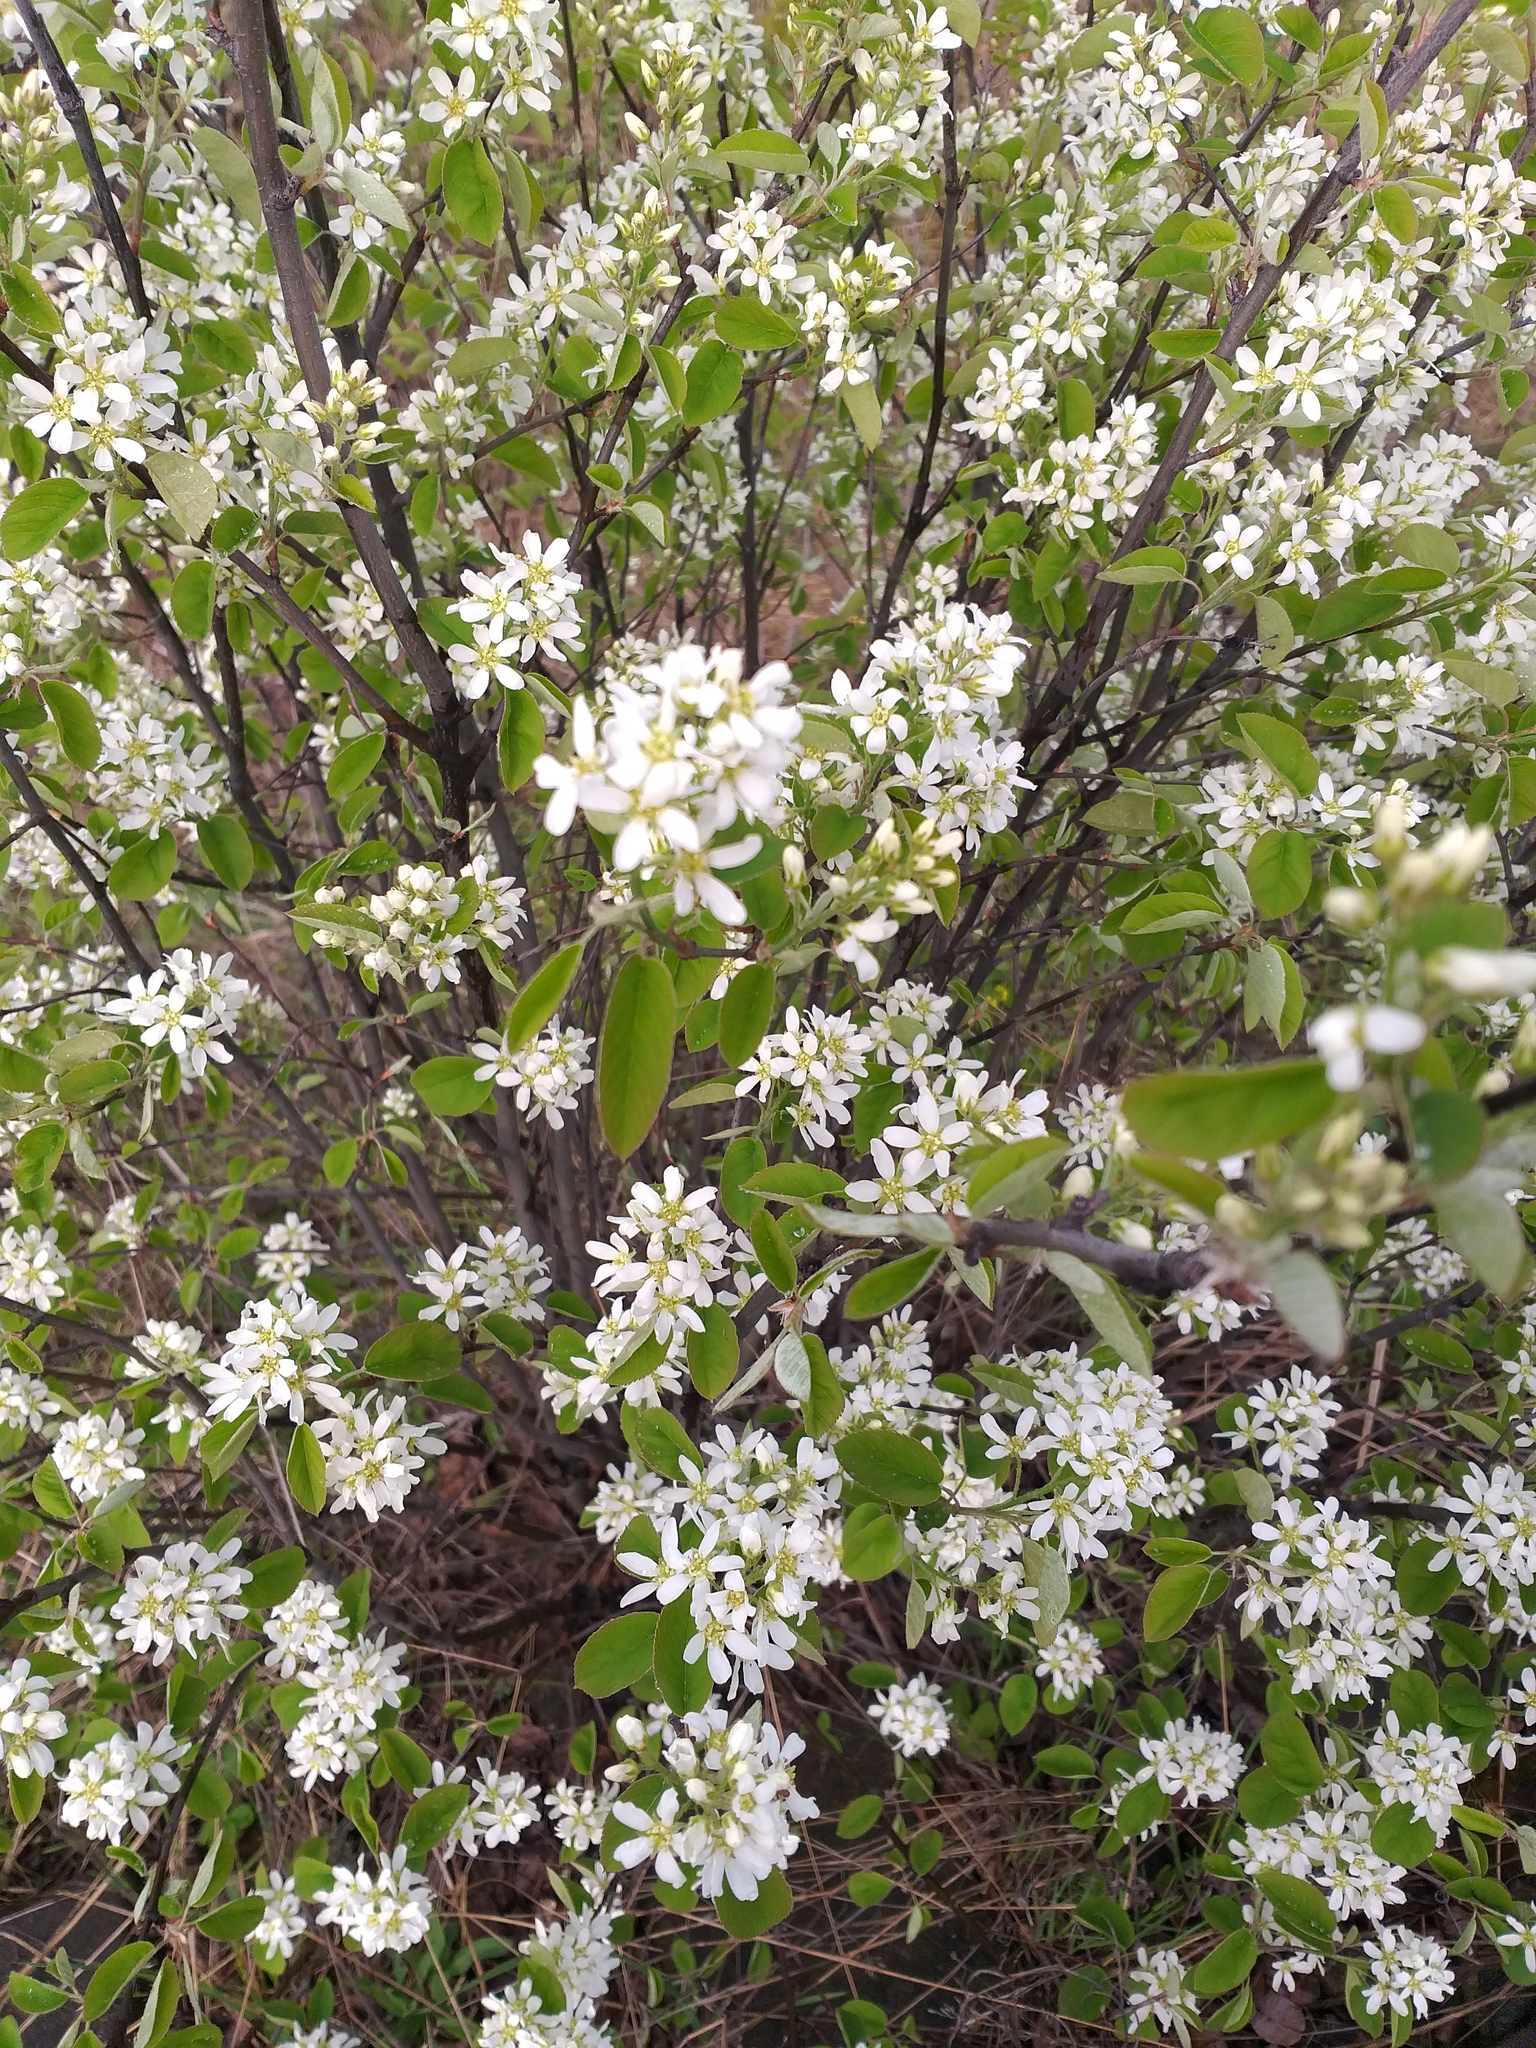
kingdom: Plantae
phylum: Tracheophyta
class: Magnoliopsida
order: Rosales
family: Rosaceae
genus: Amelanchier
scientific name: Amelanchier
